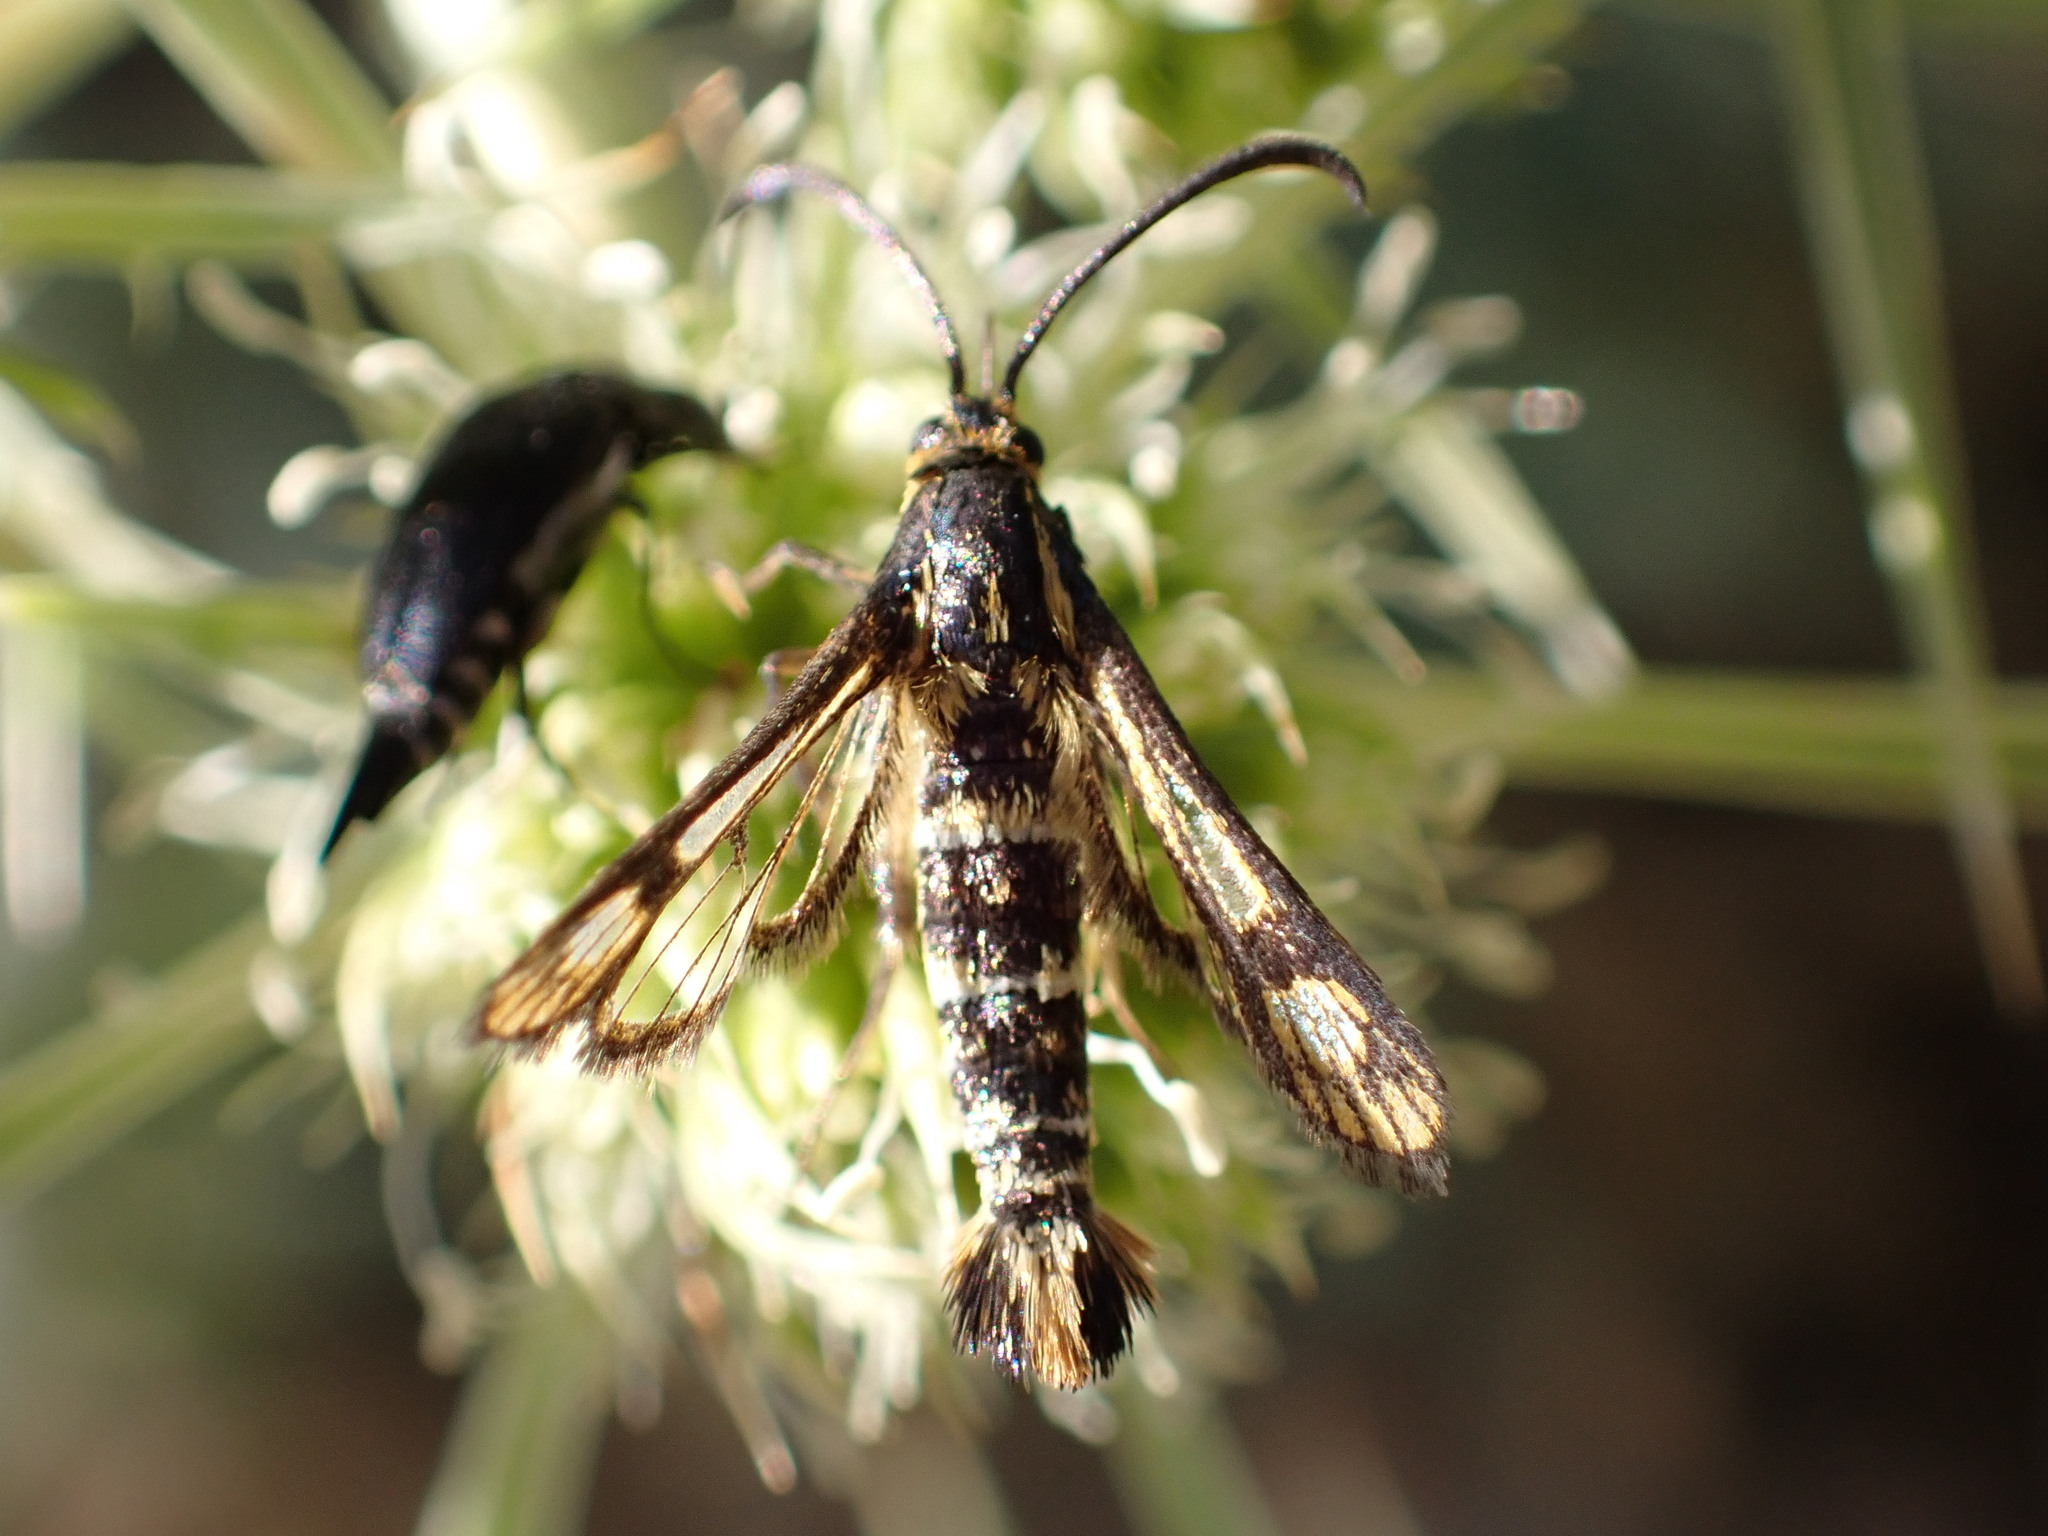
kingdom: Animalia
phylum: Arthropoda
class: Insecta
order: Lepidoptera
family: Sesiidae
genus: Chamaesphecia
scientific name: Chamaesphecia empiformis
